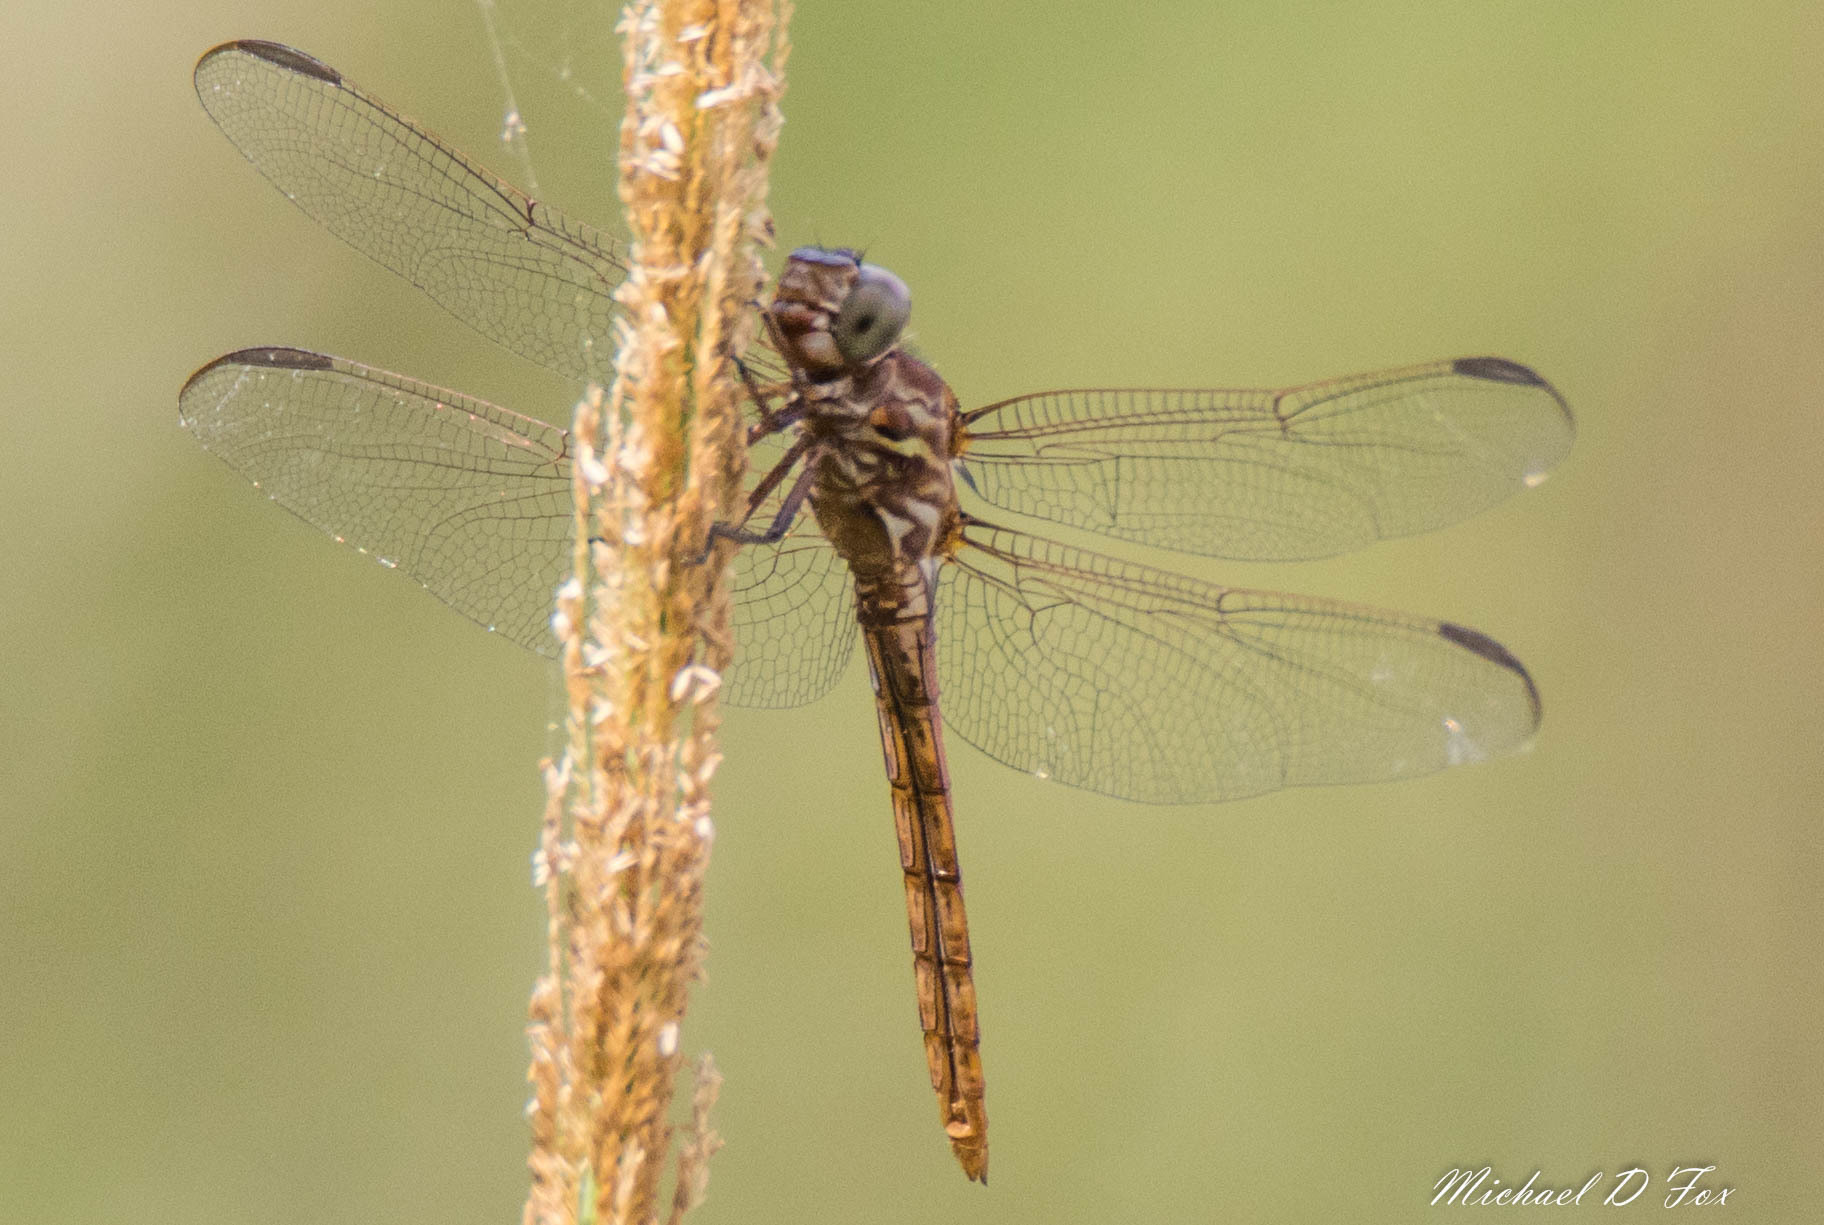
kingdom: Animalia
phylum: Arthropoda
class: Insecta
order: Odonata
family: Libellulidae
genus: Orthemis
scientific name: Orthemis ferruginea
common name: Roseate skimmer
